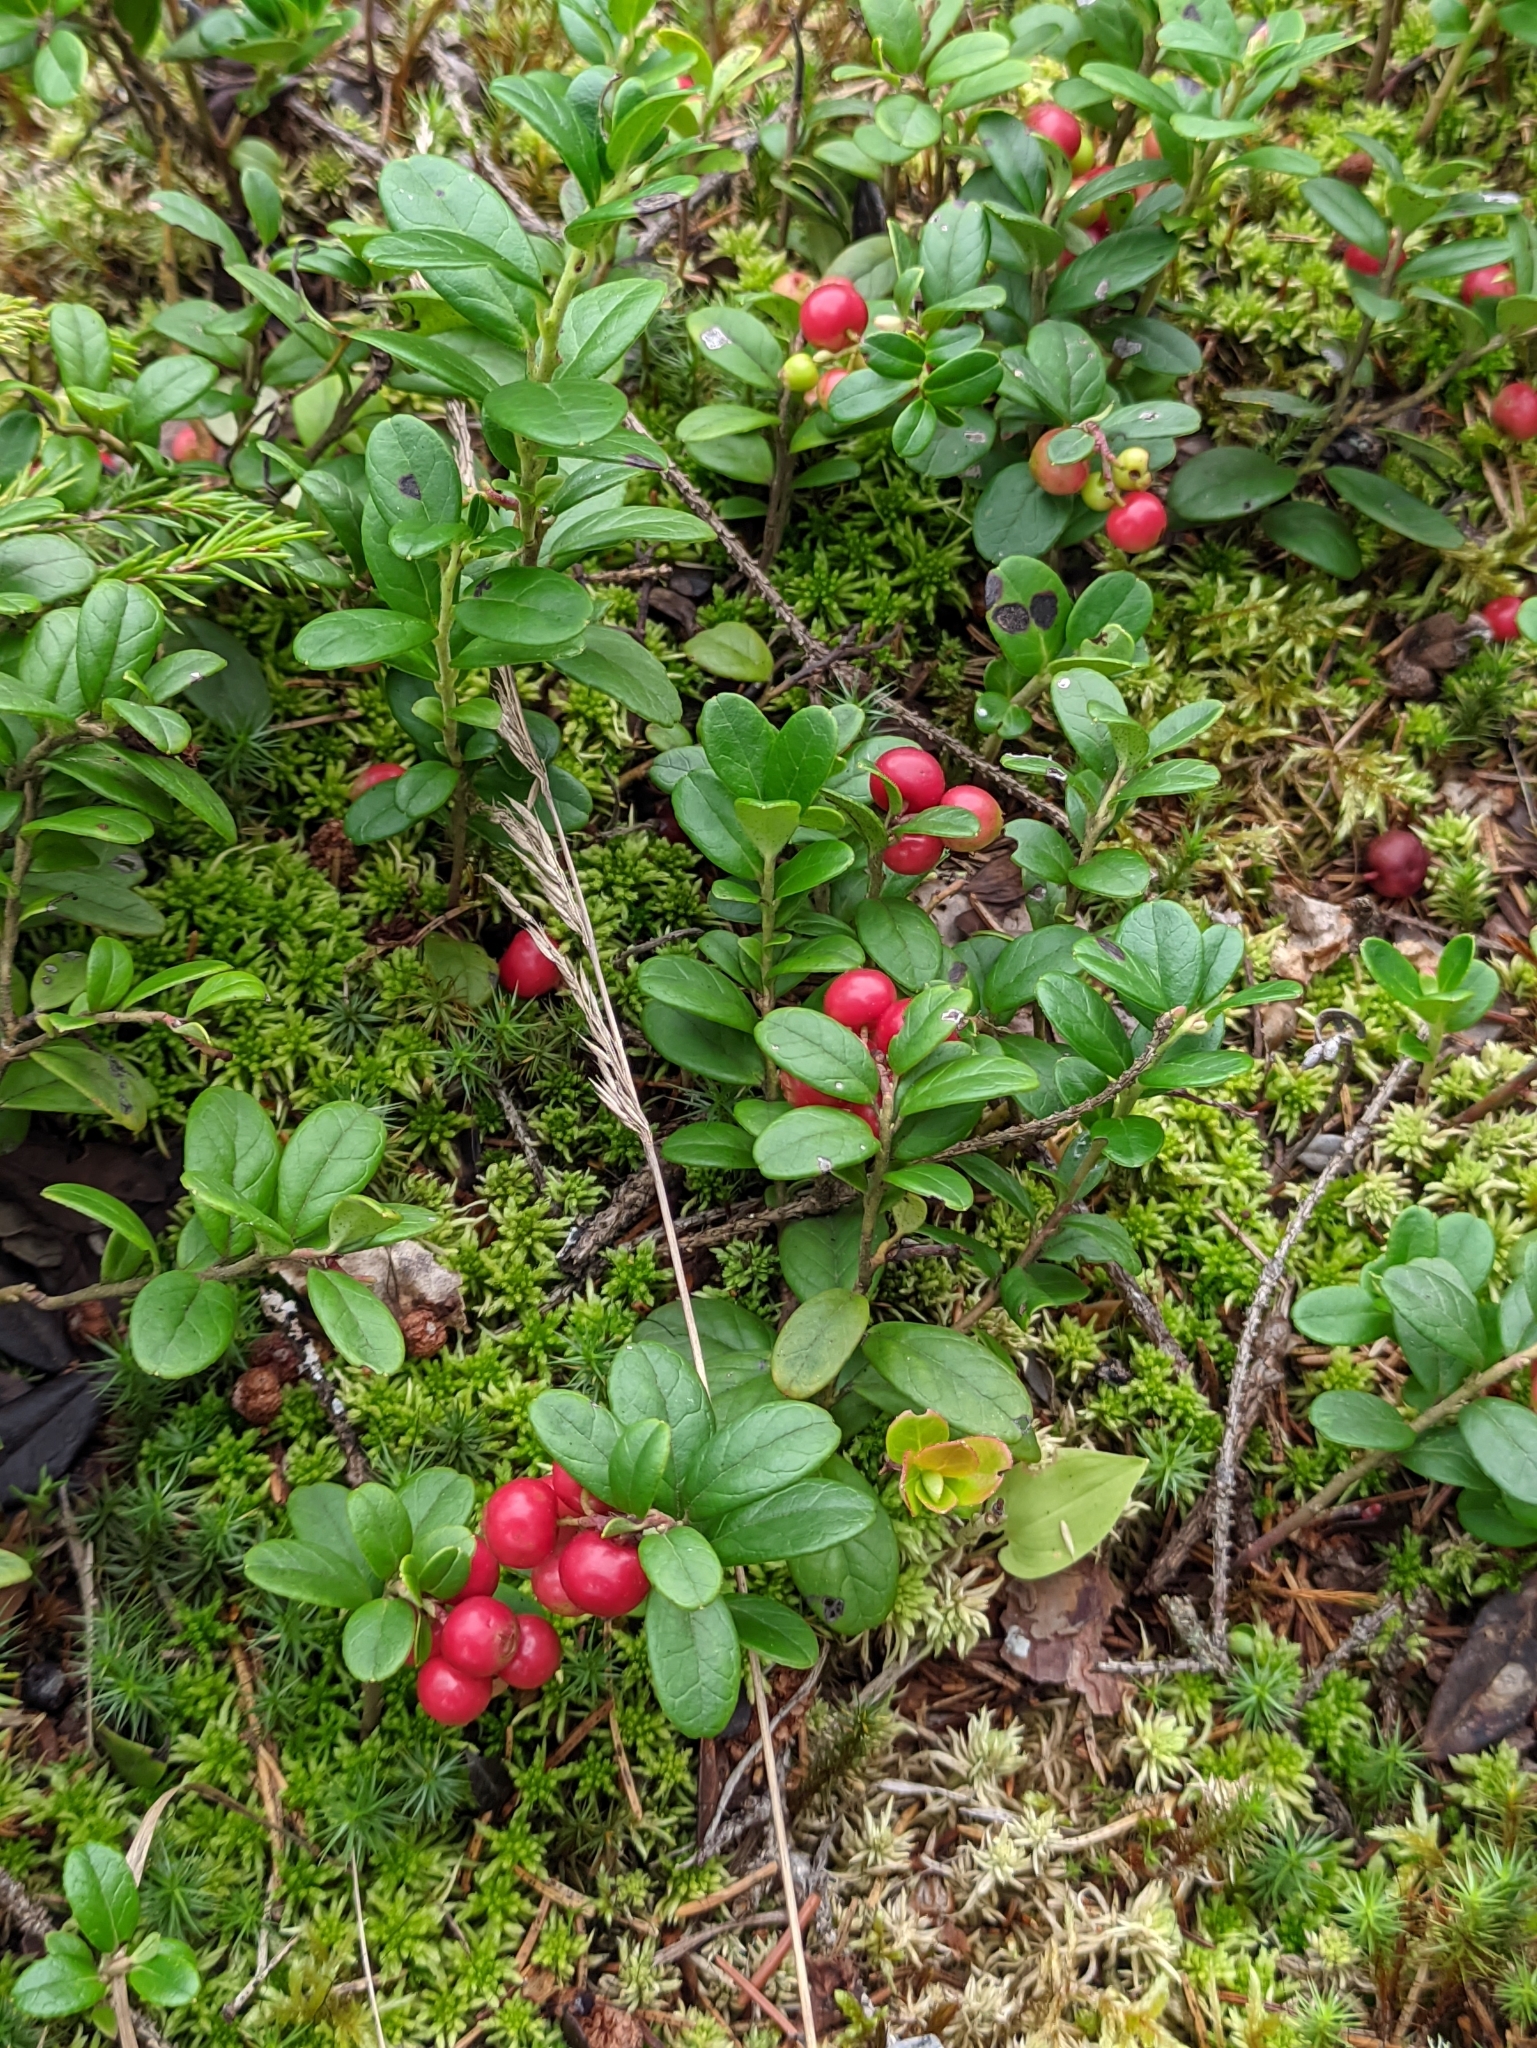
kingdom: Plantae
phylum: Tracheophyta
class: Magnoliopsida
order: Ericales
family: Ericaceae
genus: Vaccinium
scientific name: Vaccinium vitis-idaea
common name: Cowberry
